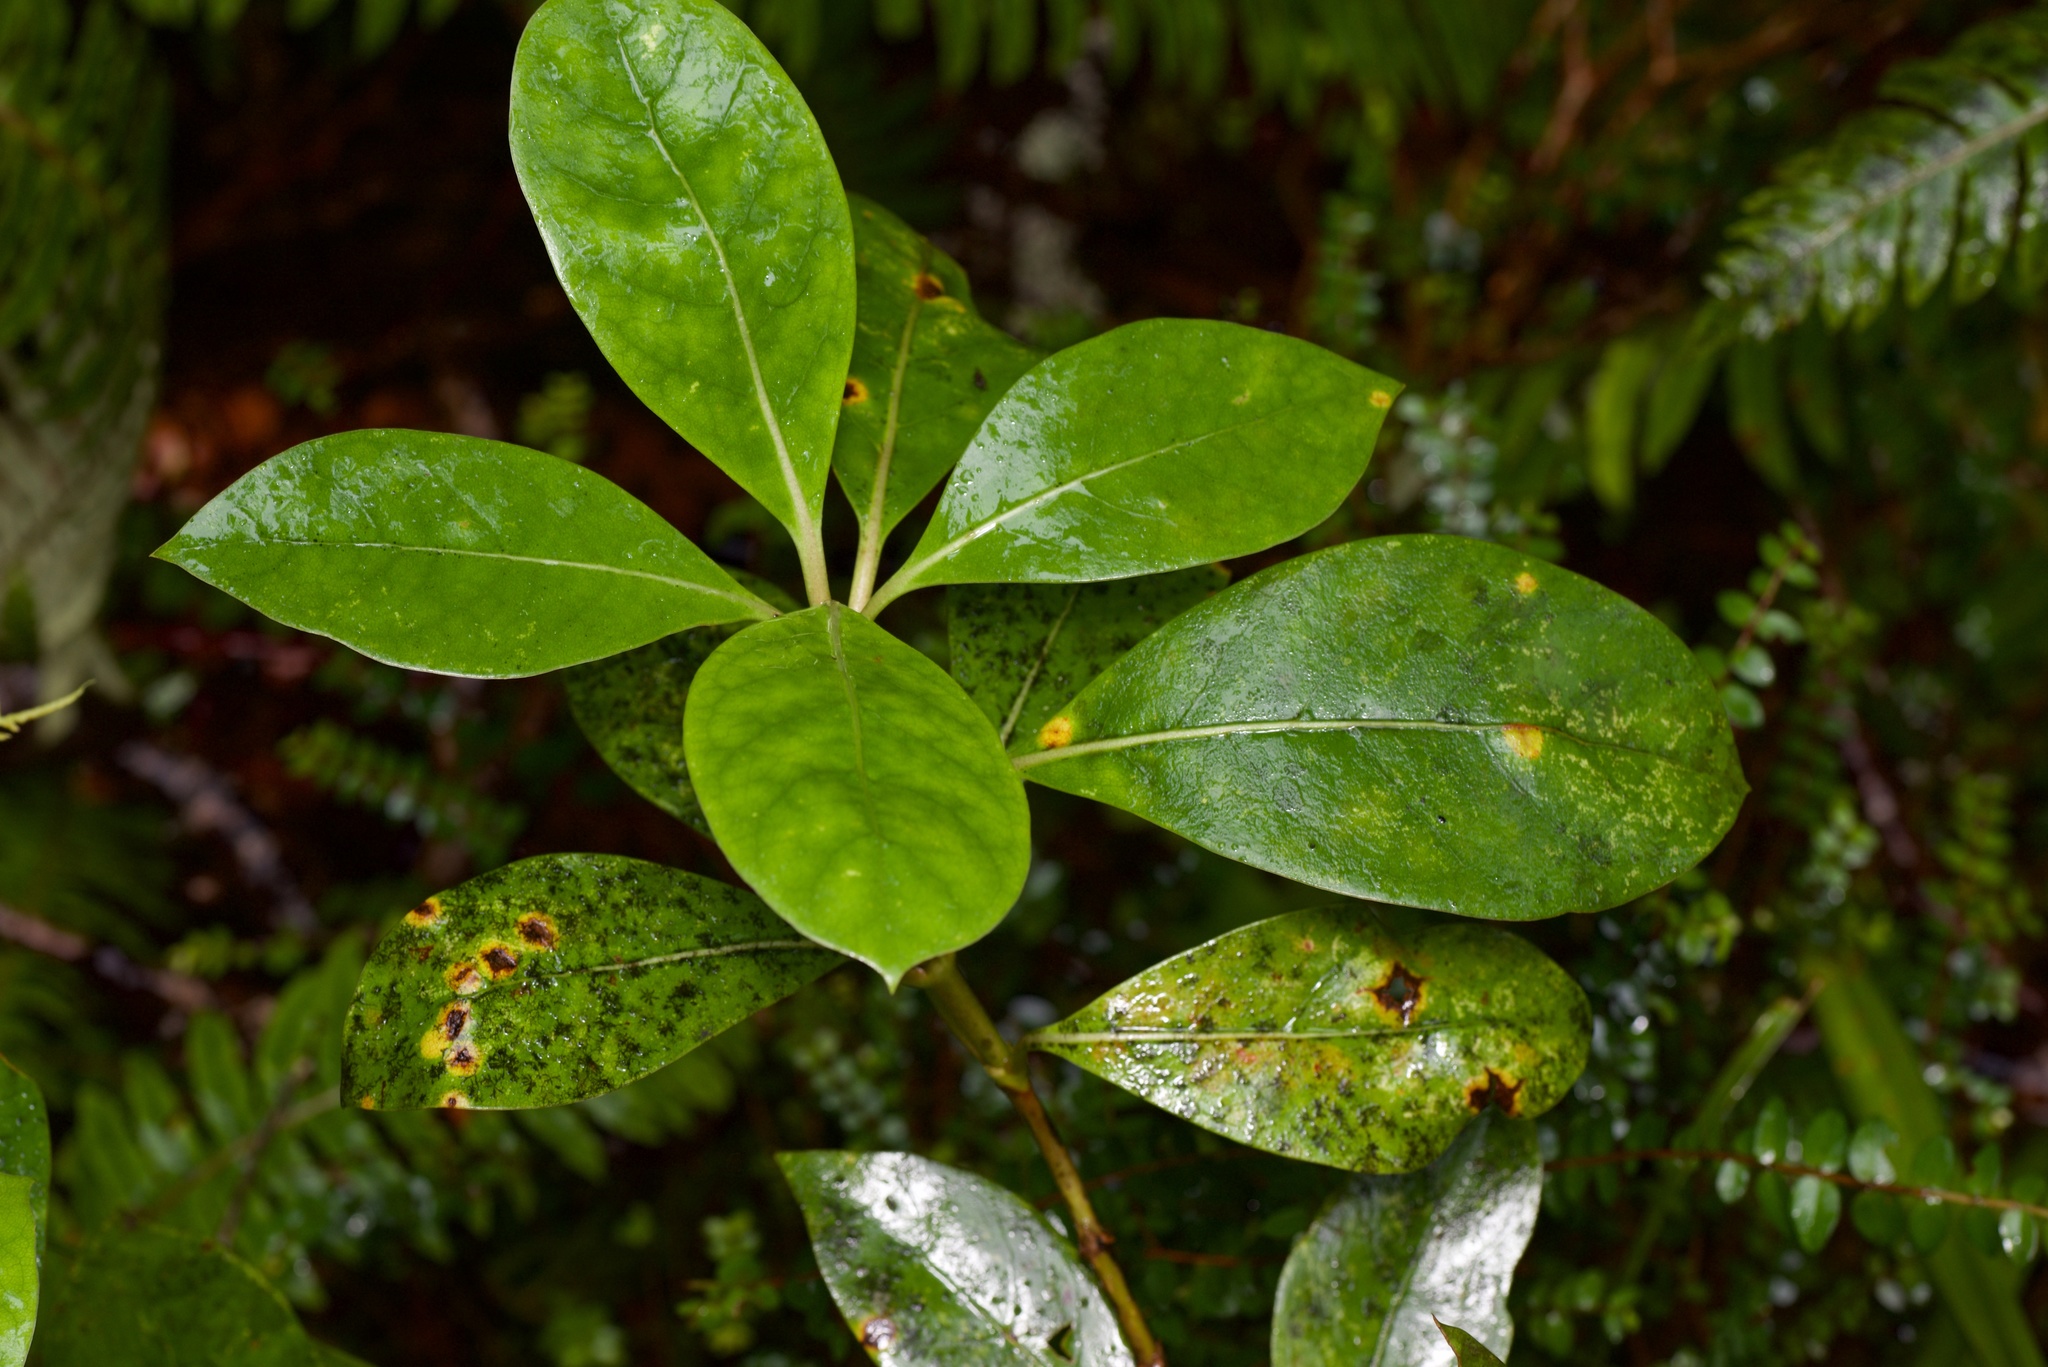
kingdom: Fungi
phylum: Basidiomycota
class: Pucciniomycetes
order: Pucciniales
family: Pucciniaceae
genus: Puccinia
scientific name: Puccinia coprosmae
